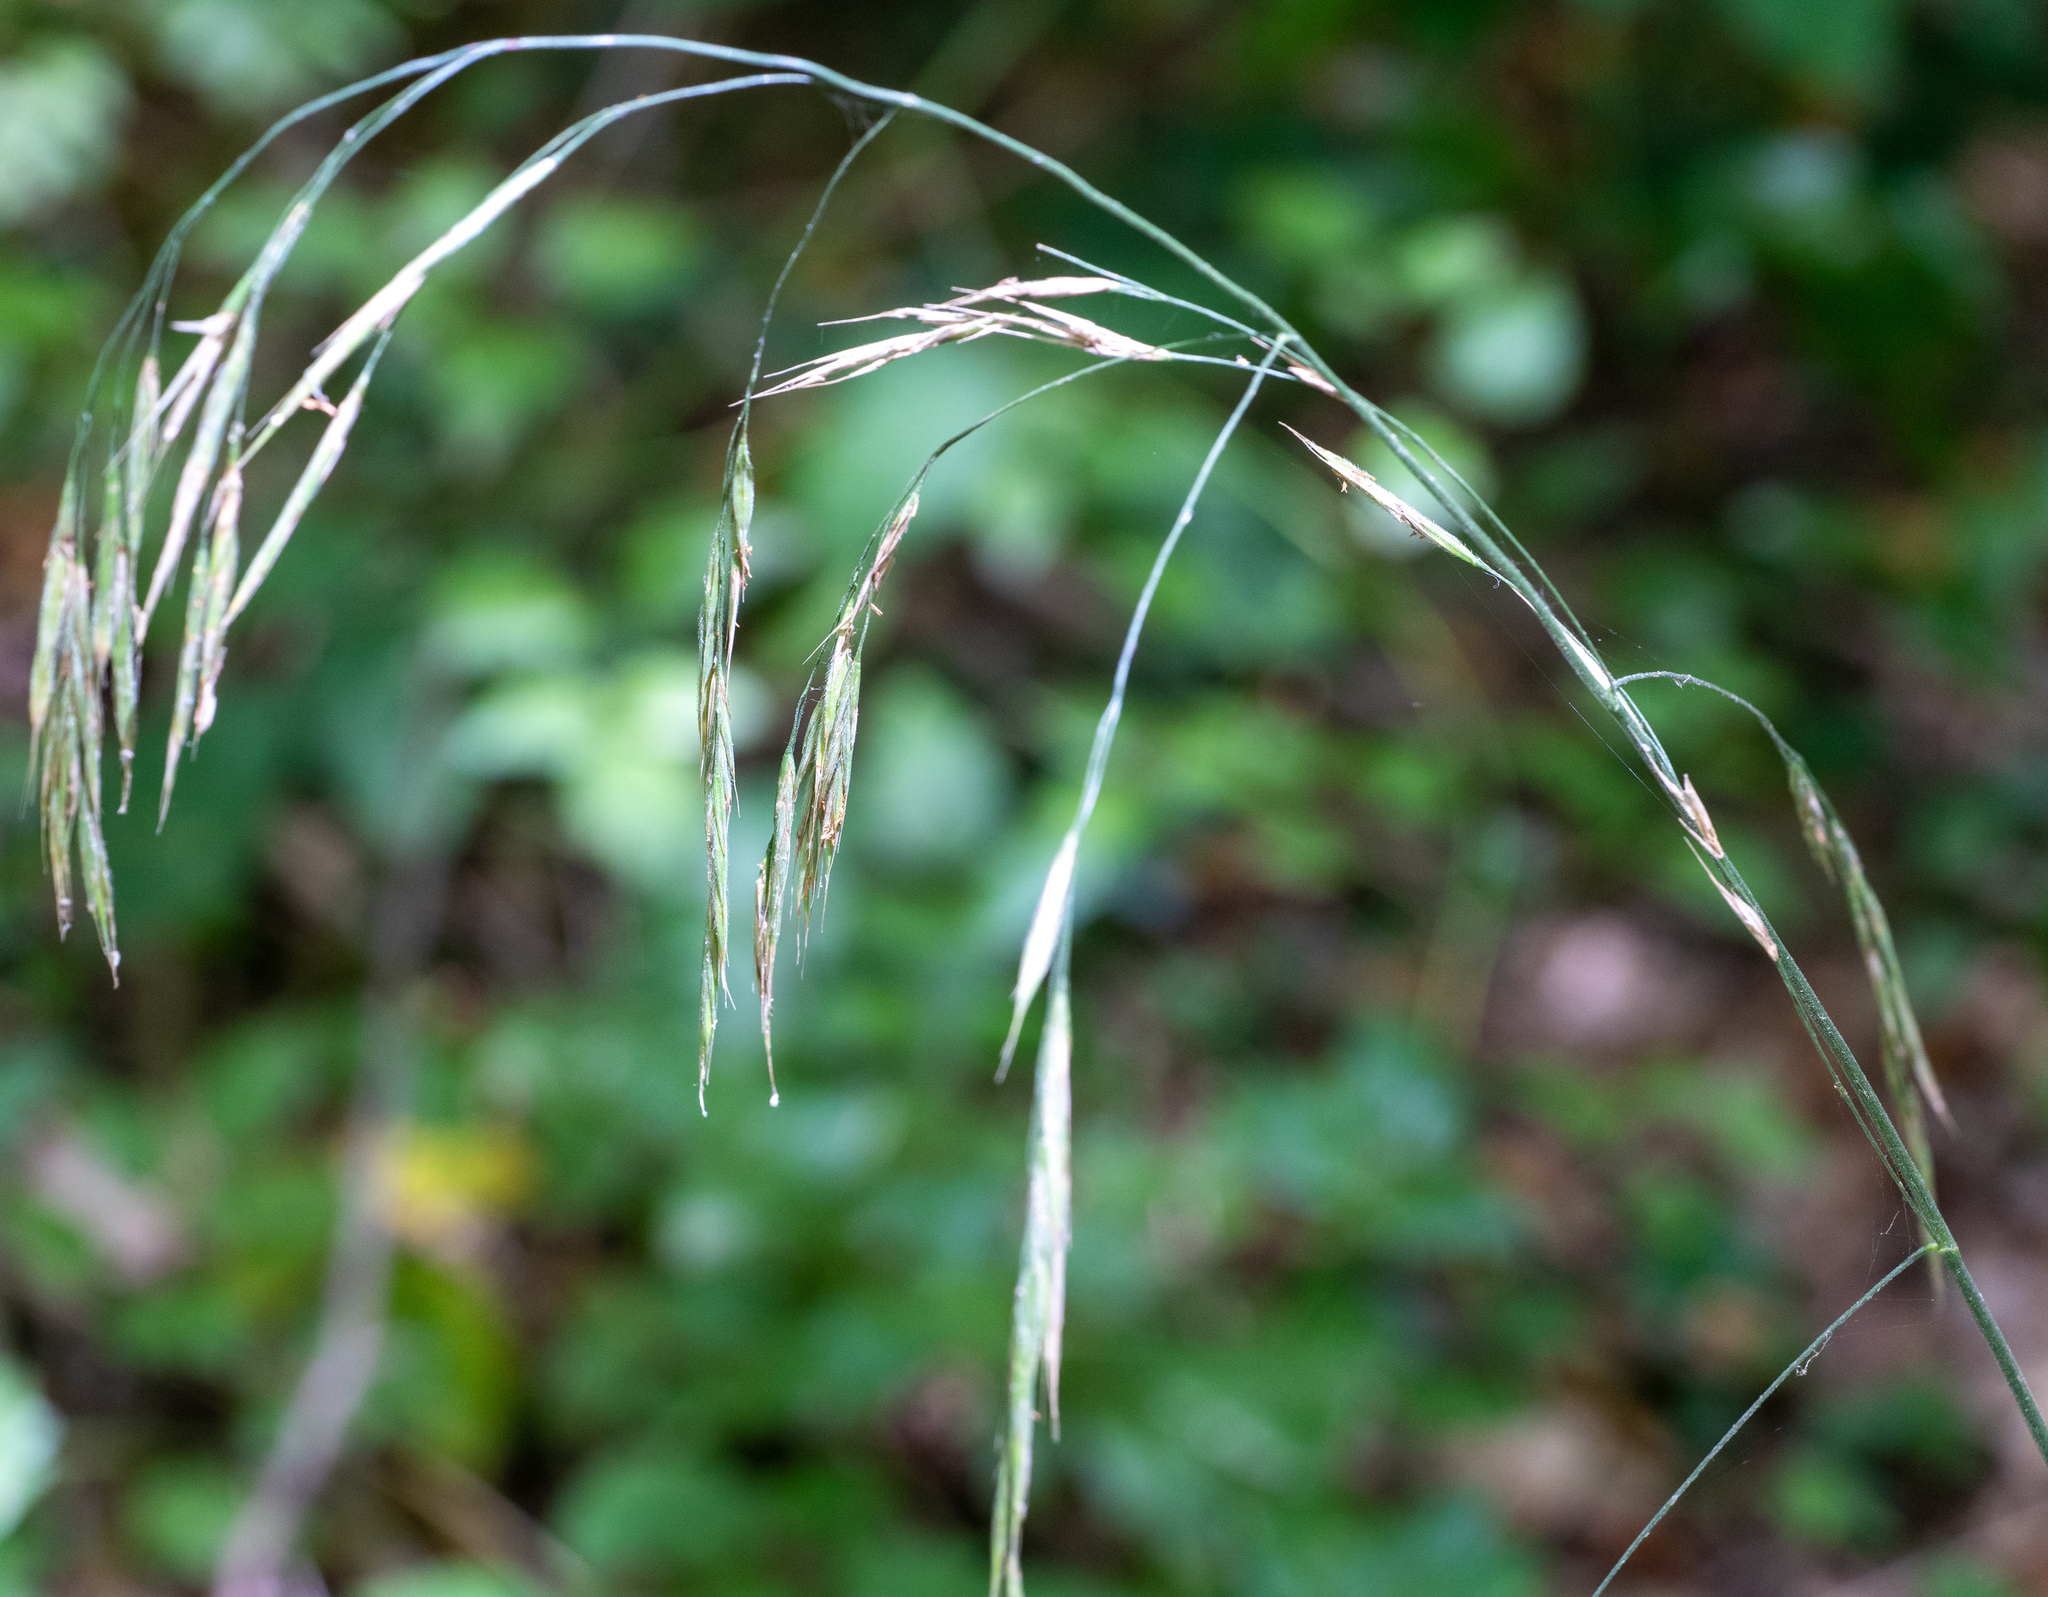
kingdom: Plantae
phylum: Tracheophyta
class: Liliopsida
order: Poales
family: Poaceae
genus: Bromus
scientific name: Bromus ramosus
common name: Hairy brome
